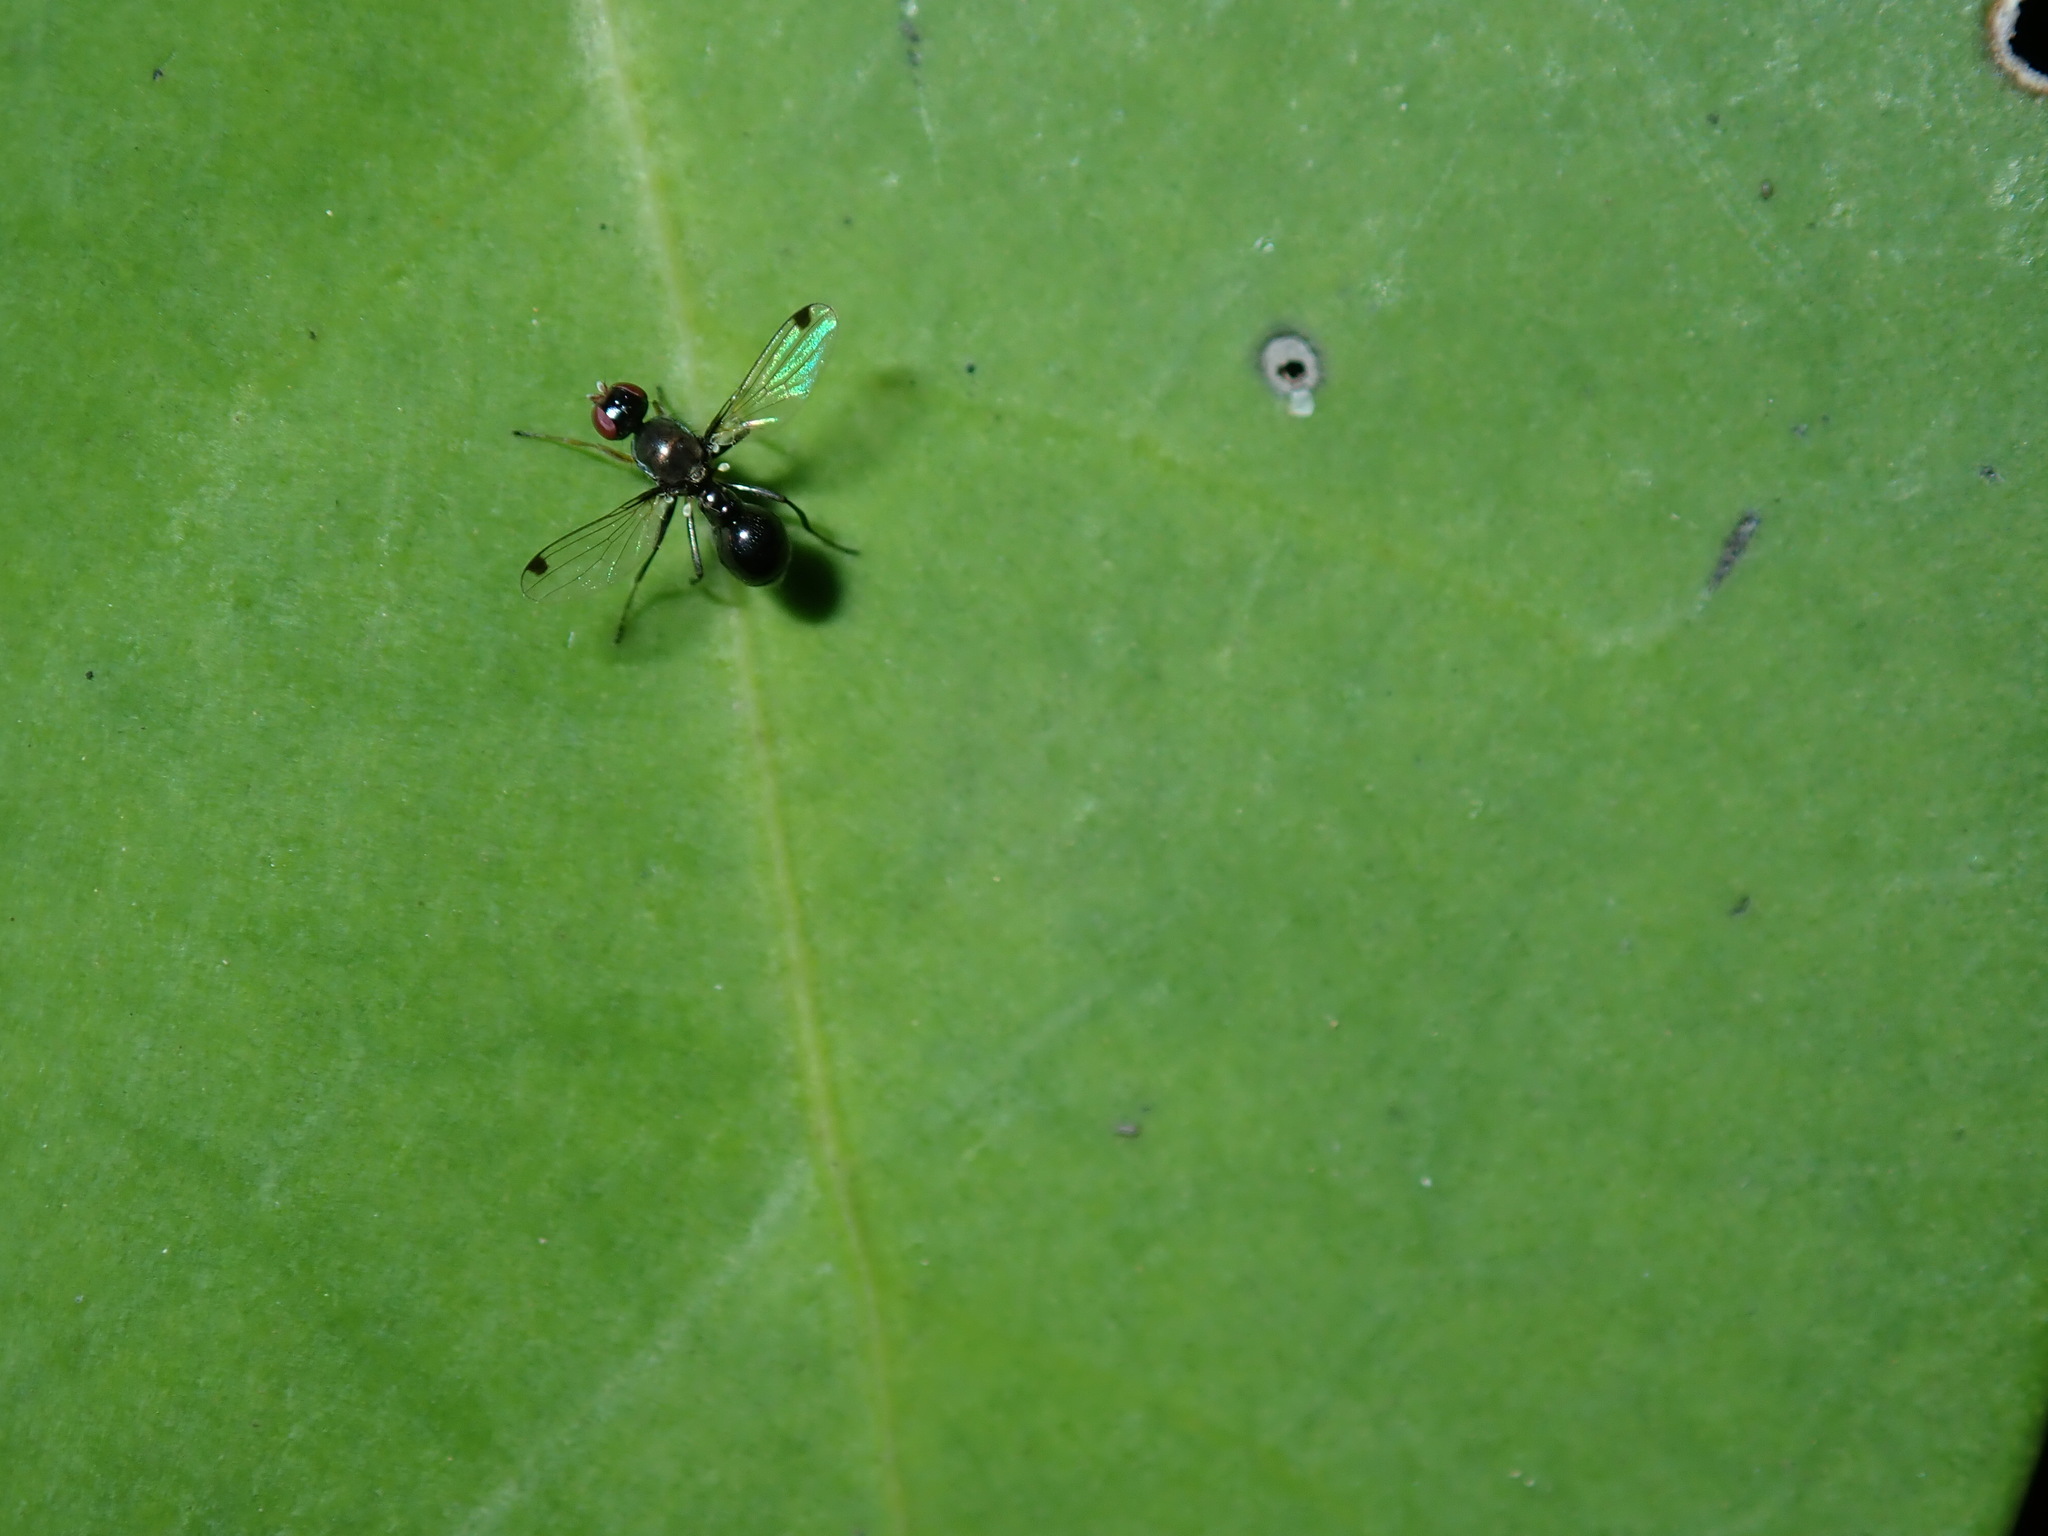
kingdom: Animalia
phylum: Arthropoda
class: Insecta
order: Diptera
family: Sepsidae
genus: Parapalaeosepsis
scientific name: Parapalaeosepsis plebeia
